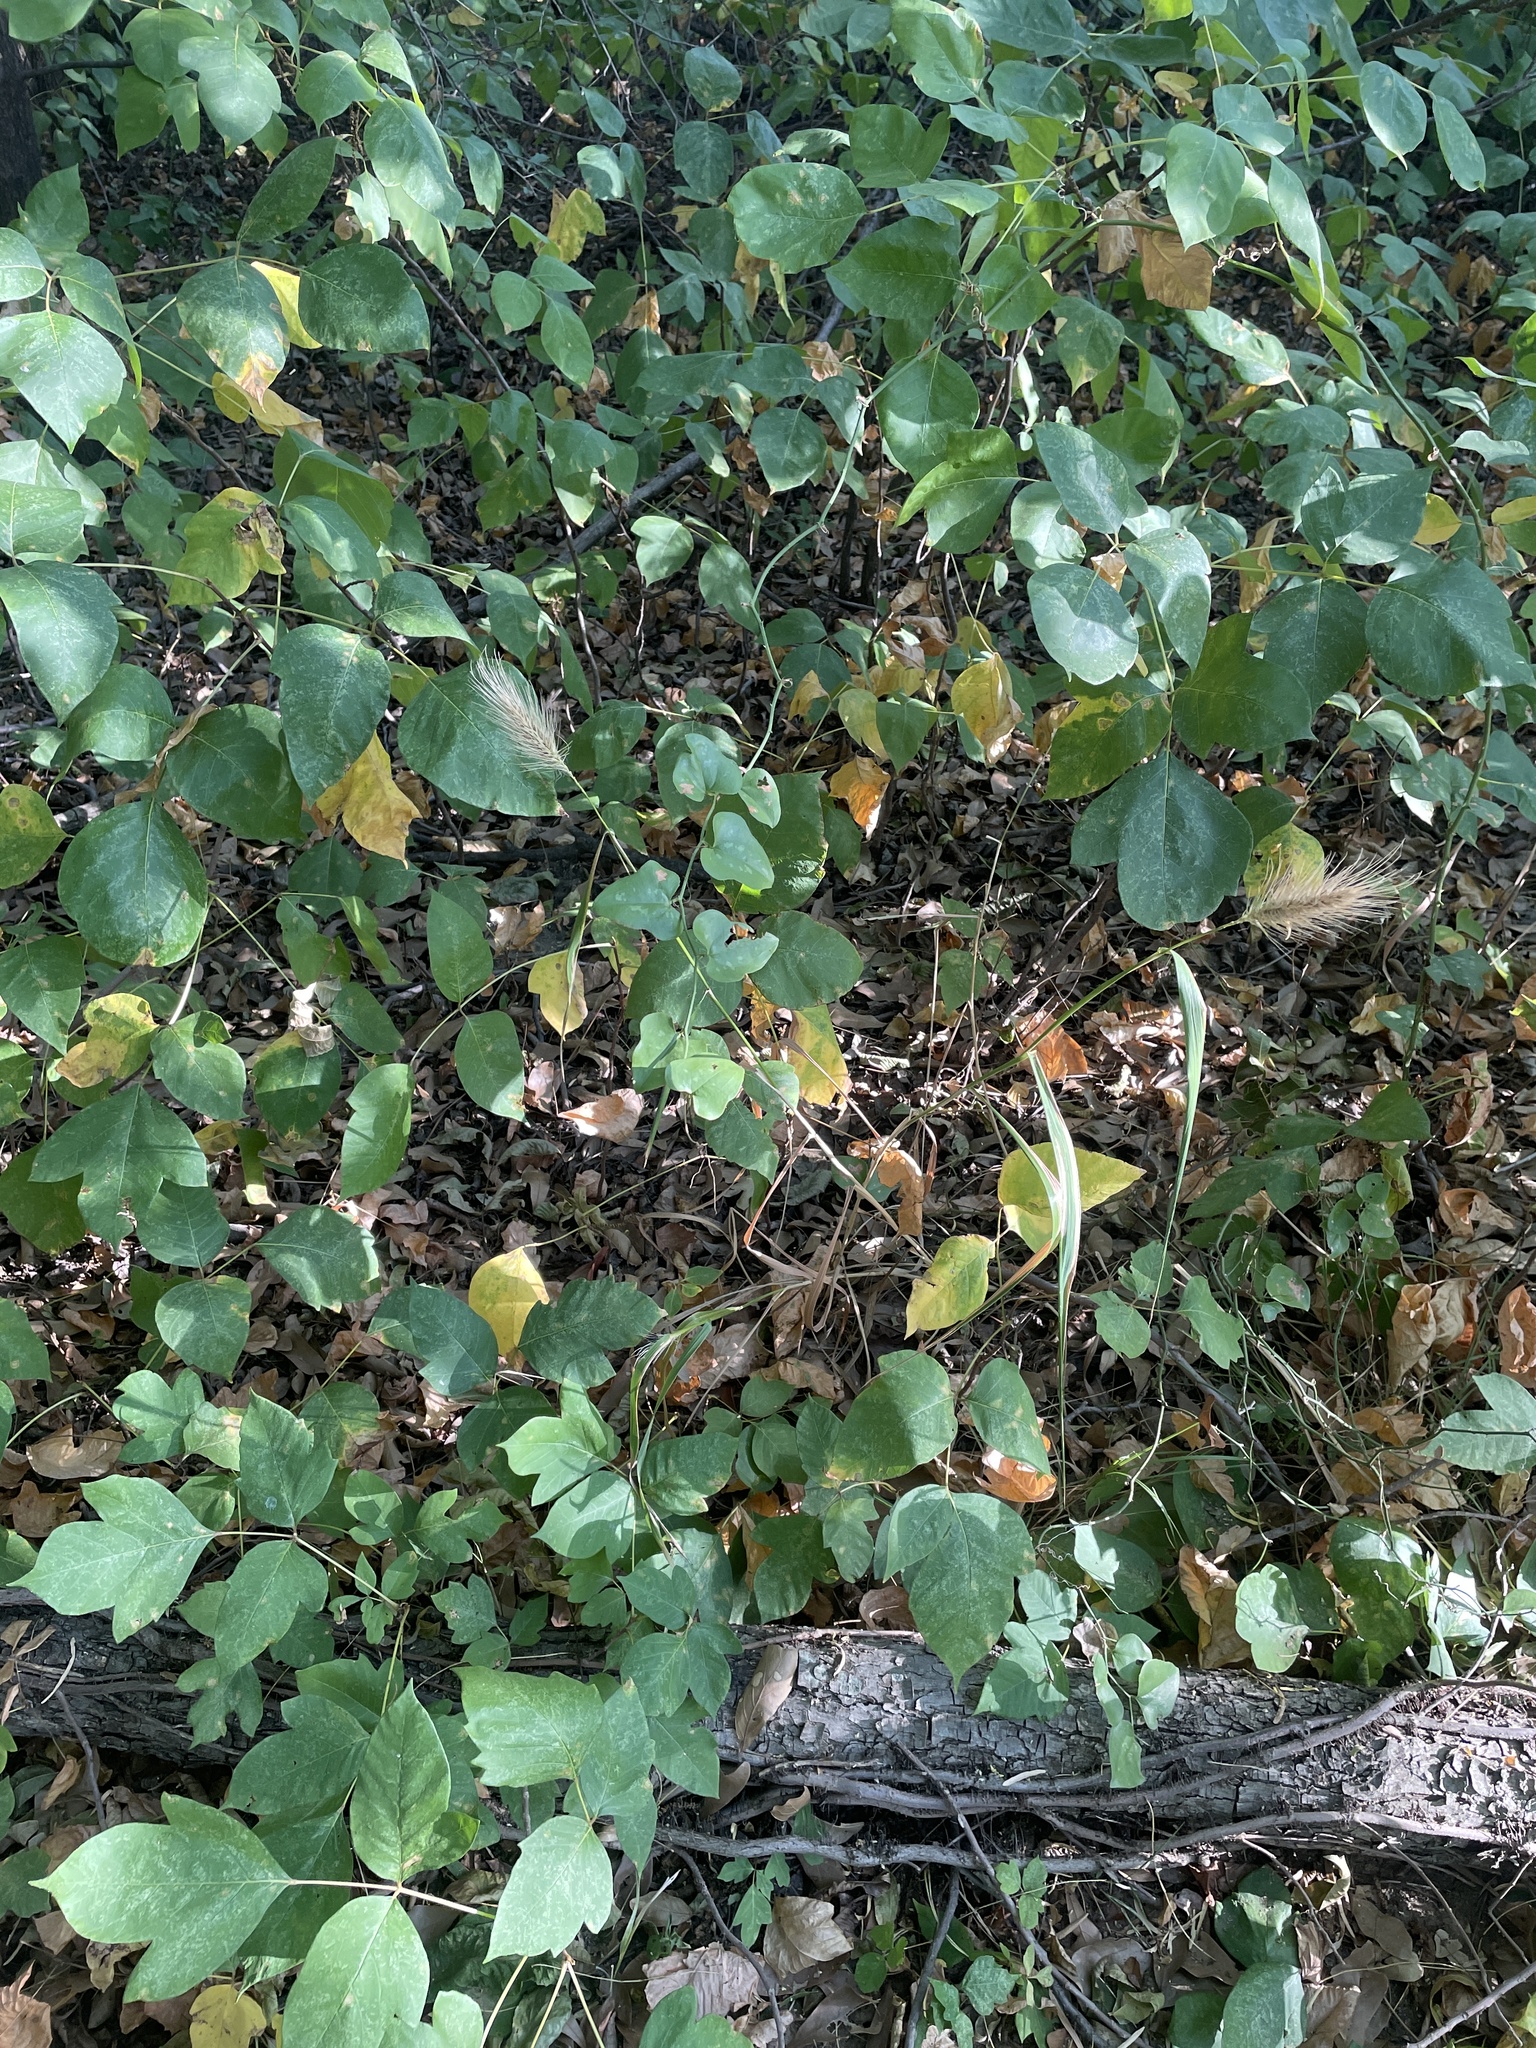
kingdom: Plantae
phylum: Tracheophyta
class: Liliopsida
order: Poales
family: Poaceae
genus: Elymus
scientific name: Elymus virginicus
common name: Common eastern wildrye
